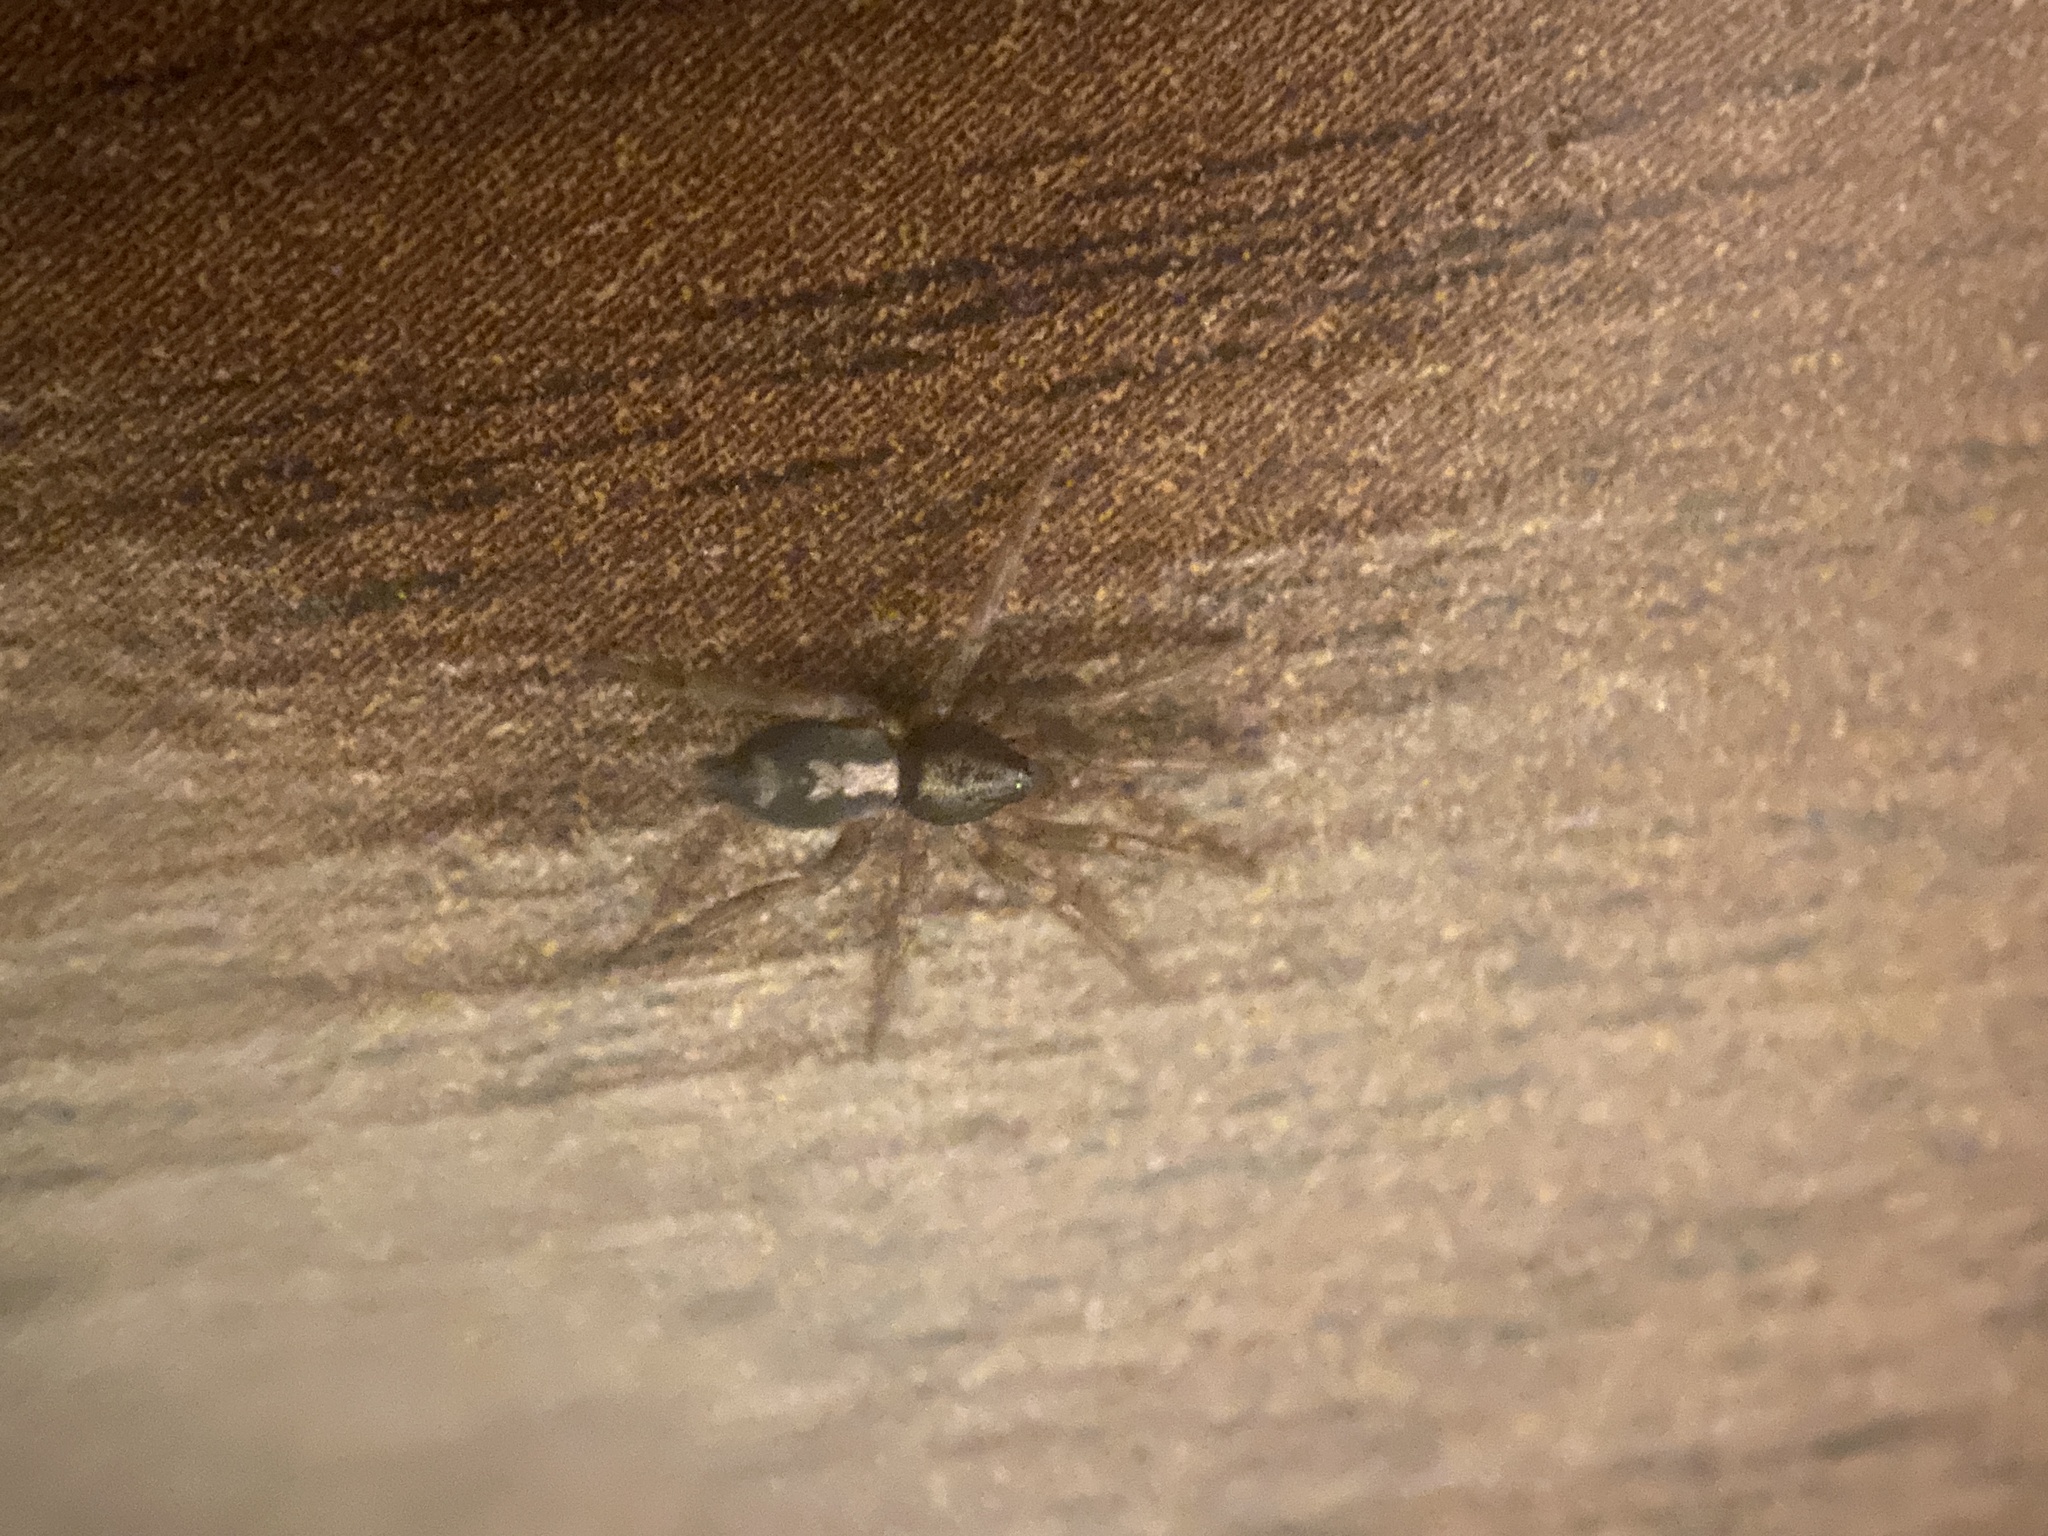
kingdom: Animalia
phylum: Arthropoda
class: Arachnida
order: Araneae
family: Gnaphosidae
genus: Herpyllus
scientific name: Herpyllus ecclesiasticus
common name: Eastern parson spider
